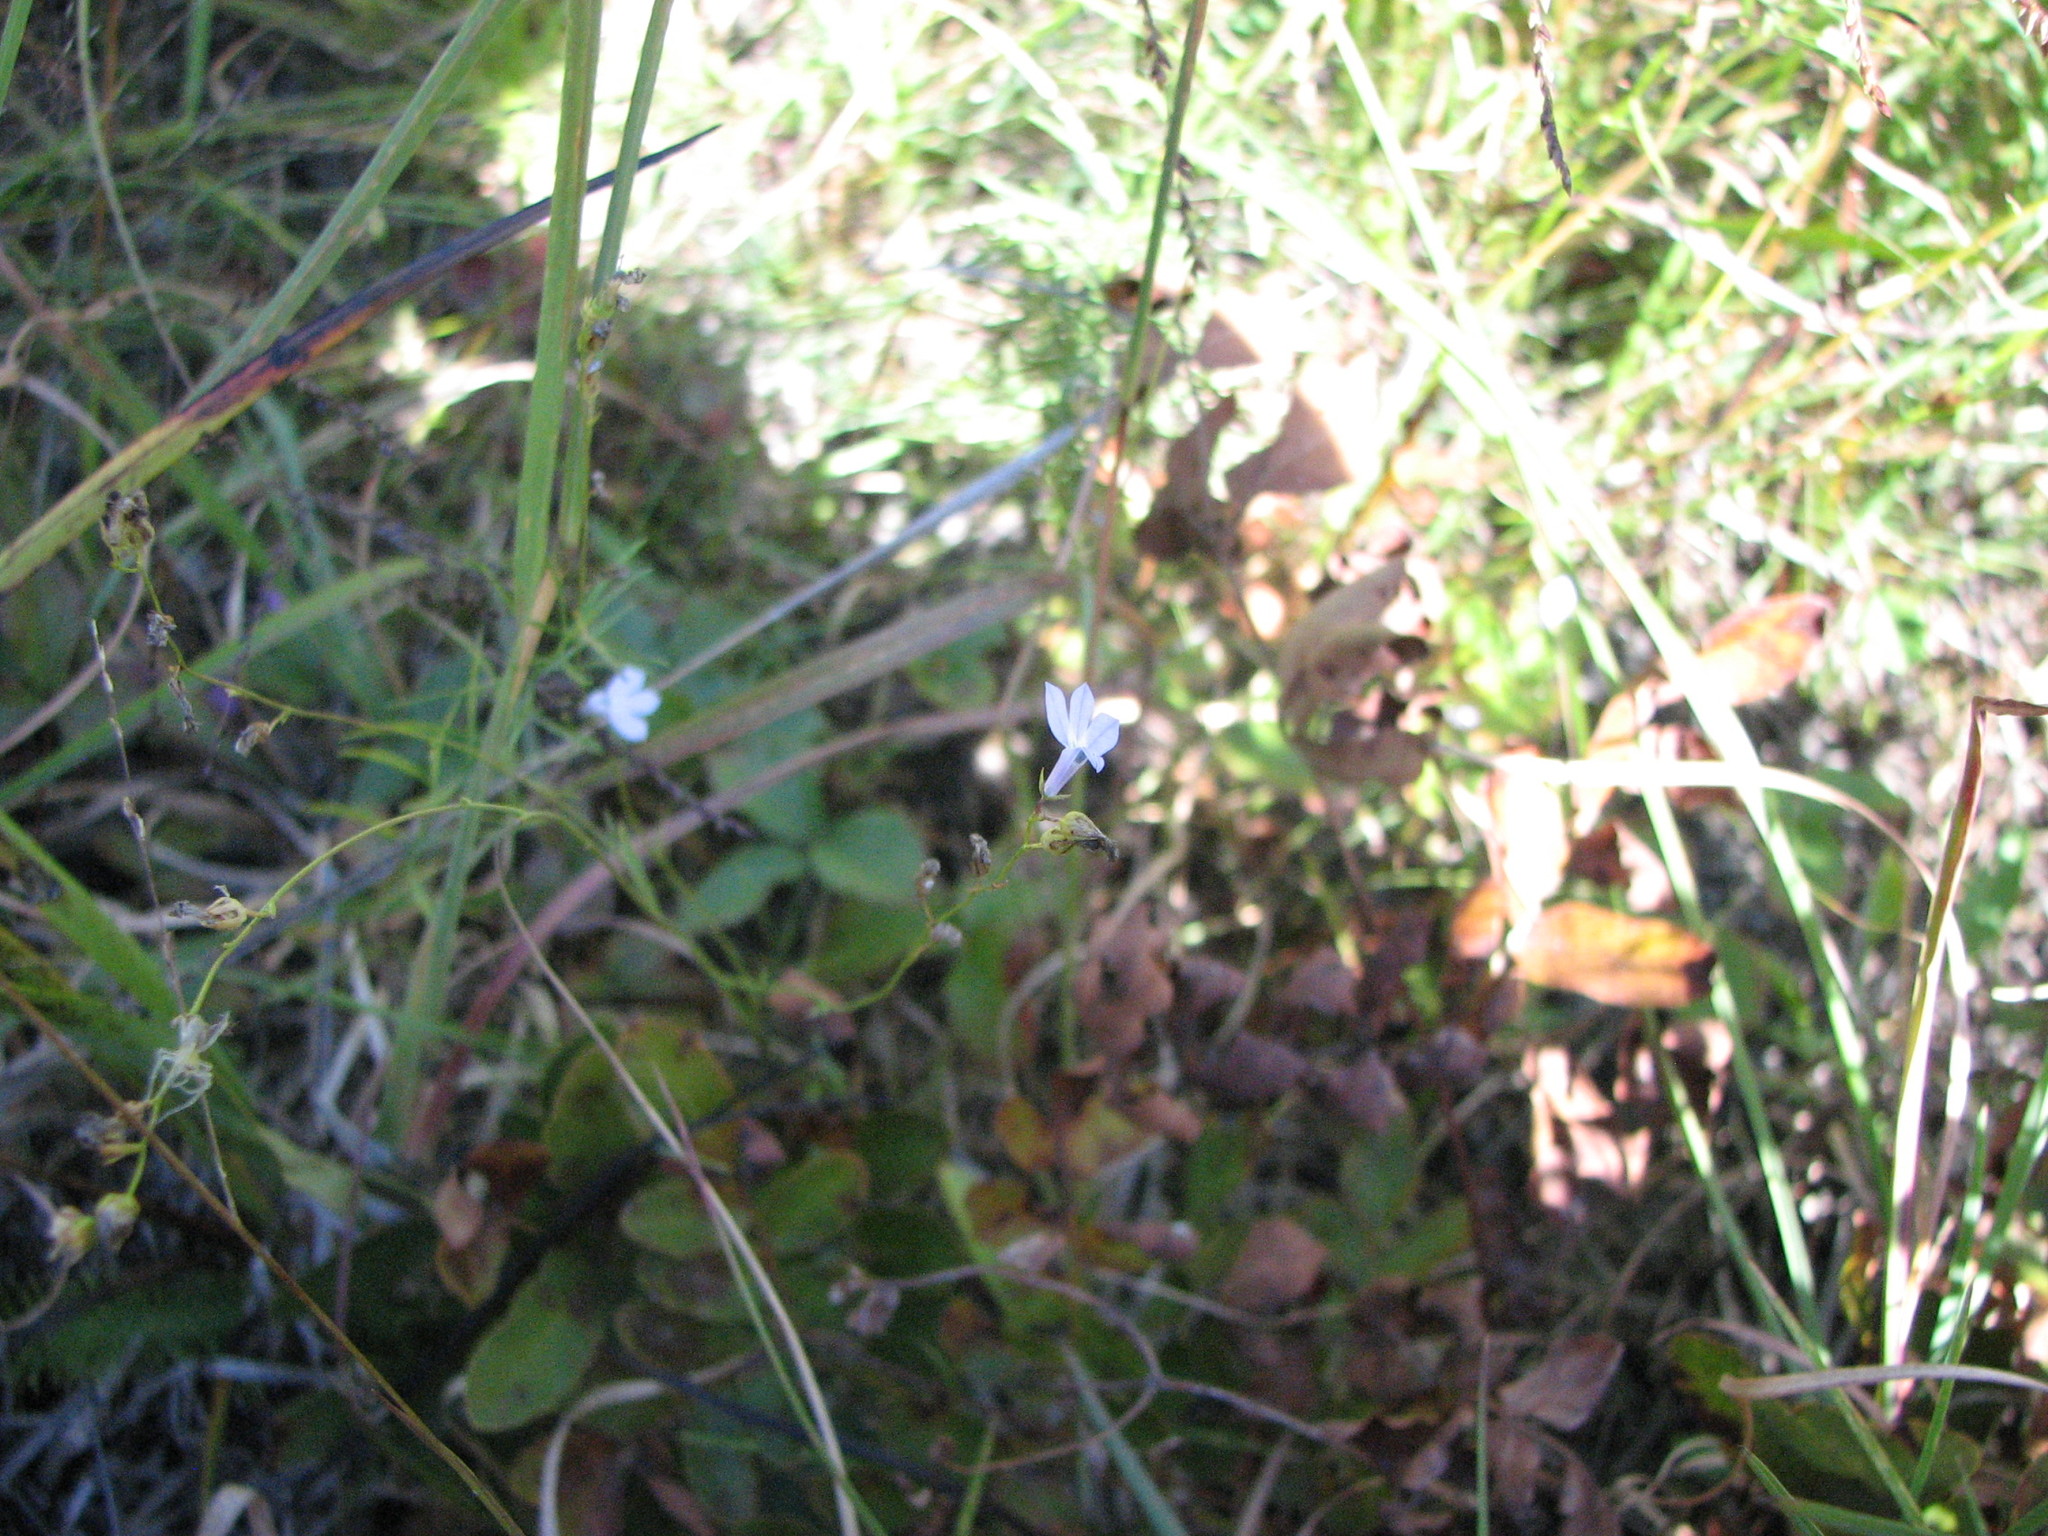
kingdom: Plantae
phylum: Tracheophyta
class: Magnoliopsida
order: Asterales
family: Campanulaceae
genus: Lobelia
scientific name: Lobelia nuttallii
